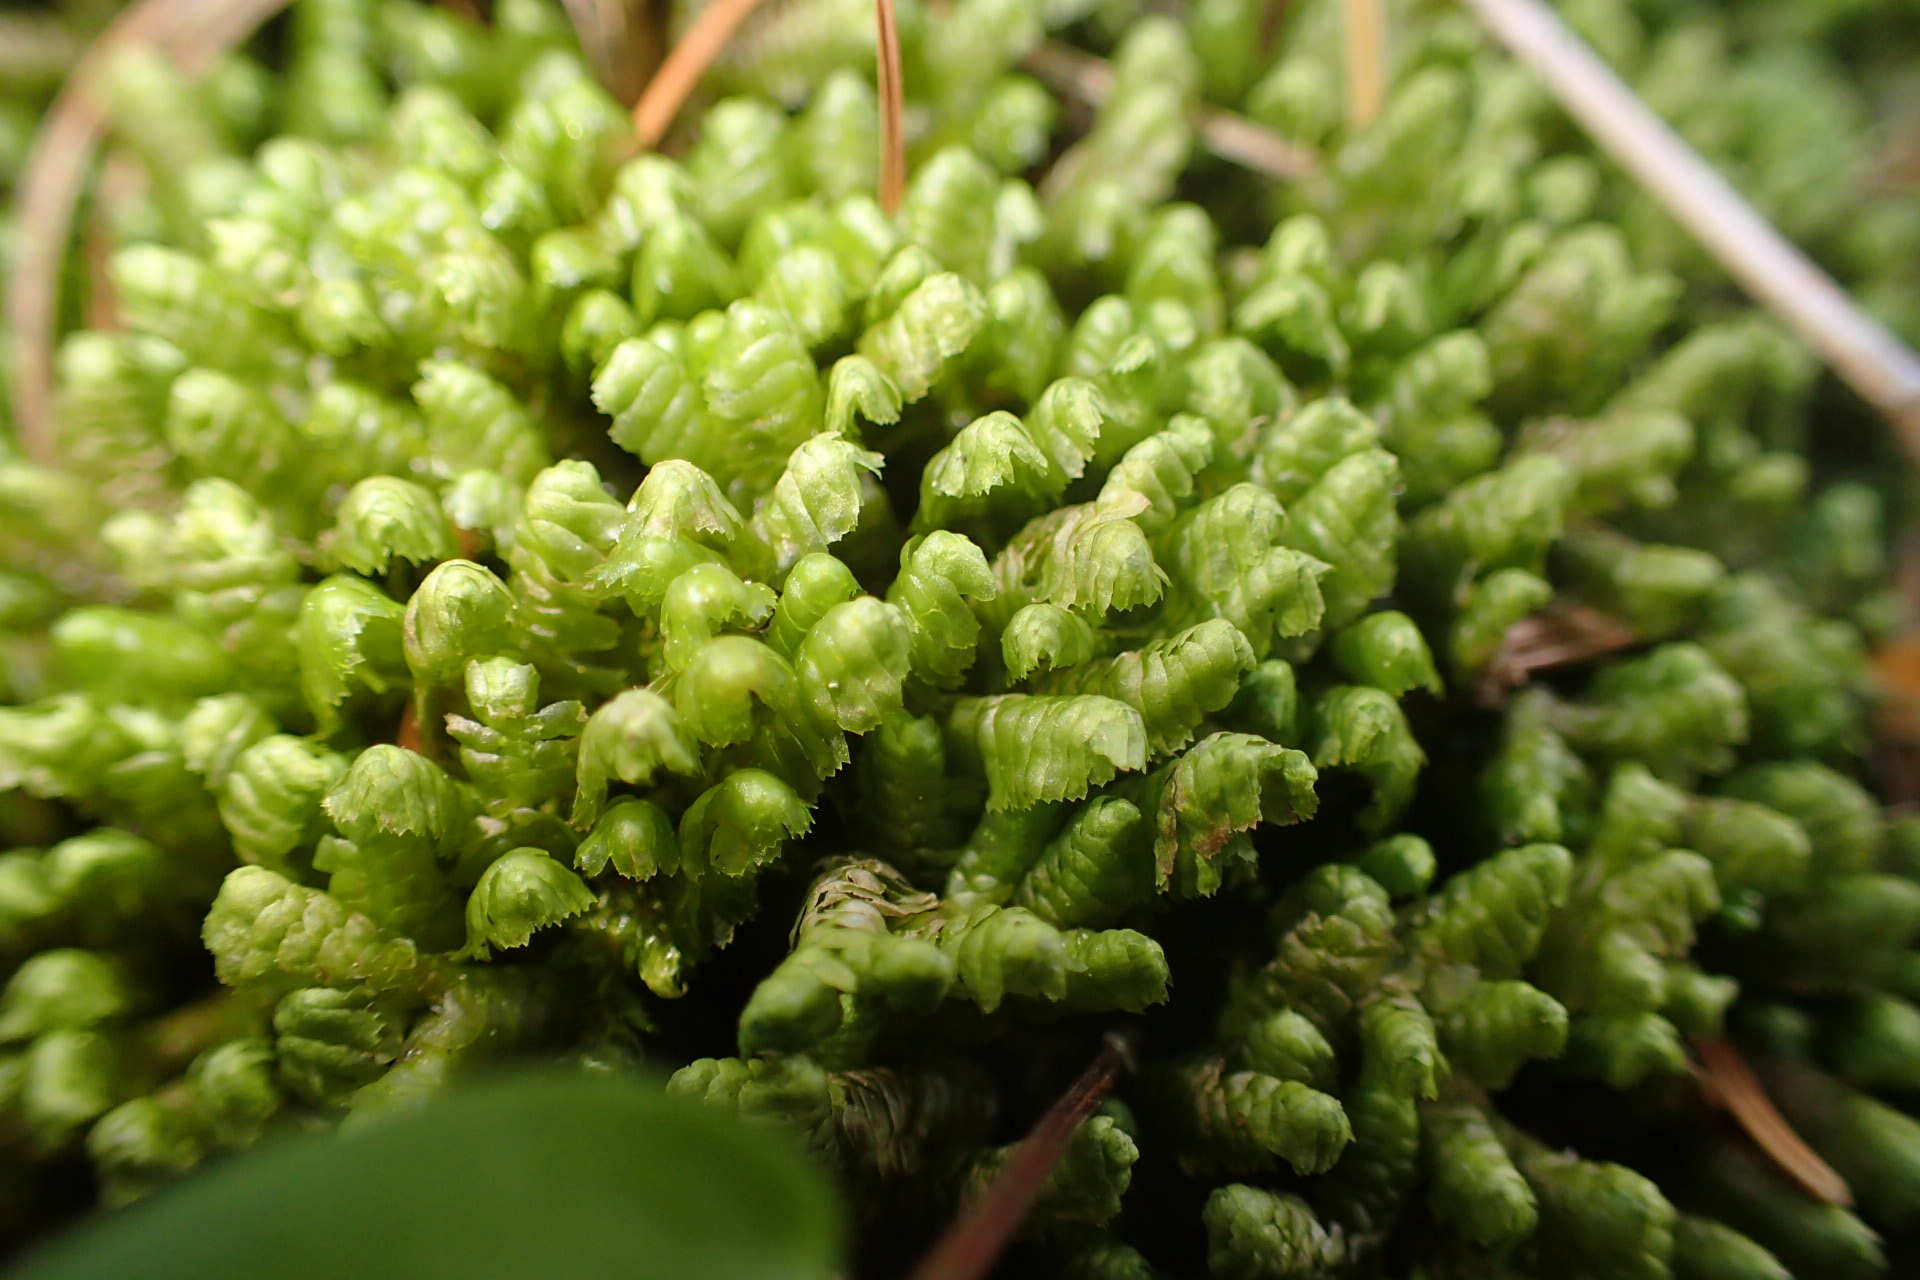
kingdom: Plantae
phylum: Marchantiophyta
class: Jungermanniopsida
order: Jungermanniales
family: Lepidoziaceae
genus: Bazzania
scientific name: Bazzania trilobata
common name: Three-lobed whipwort
